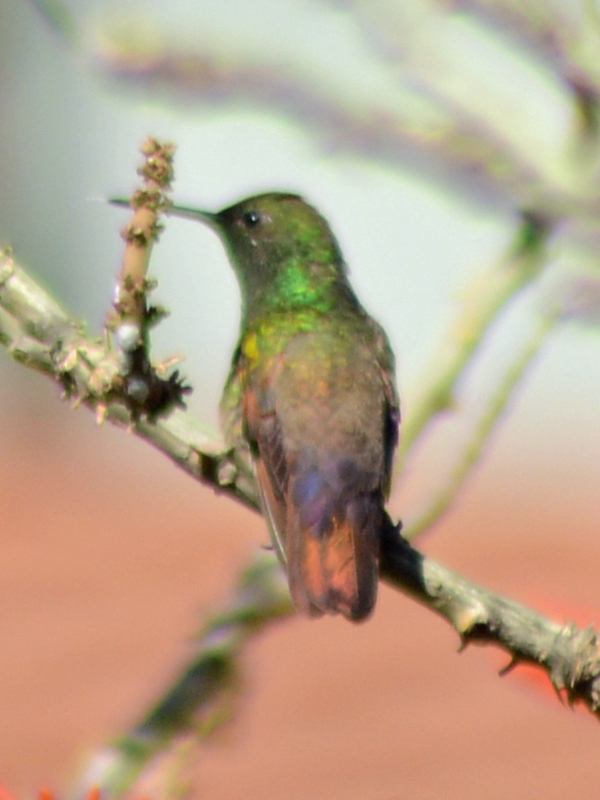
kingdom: Animalia
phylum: Chordata
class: Aves
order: Apodiformes
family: Trochilidae
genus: Saucerottia
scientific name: Saucerottia beryllina
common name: Berylline hummingbird
